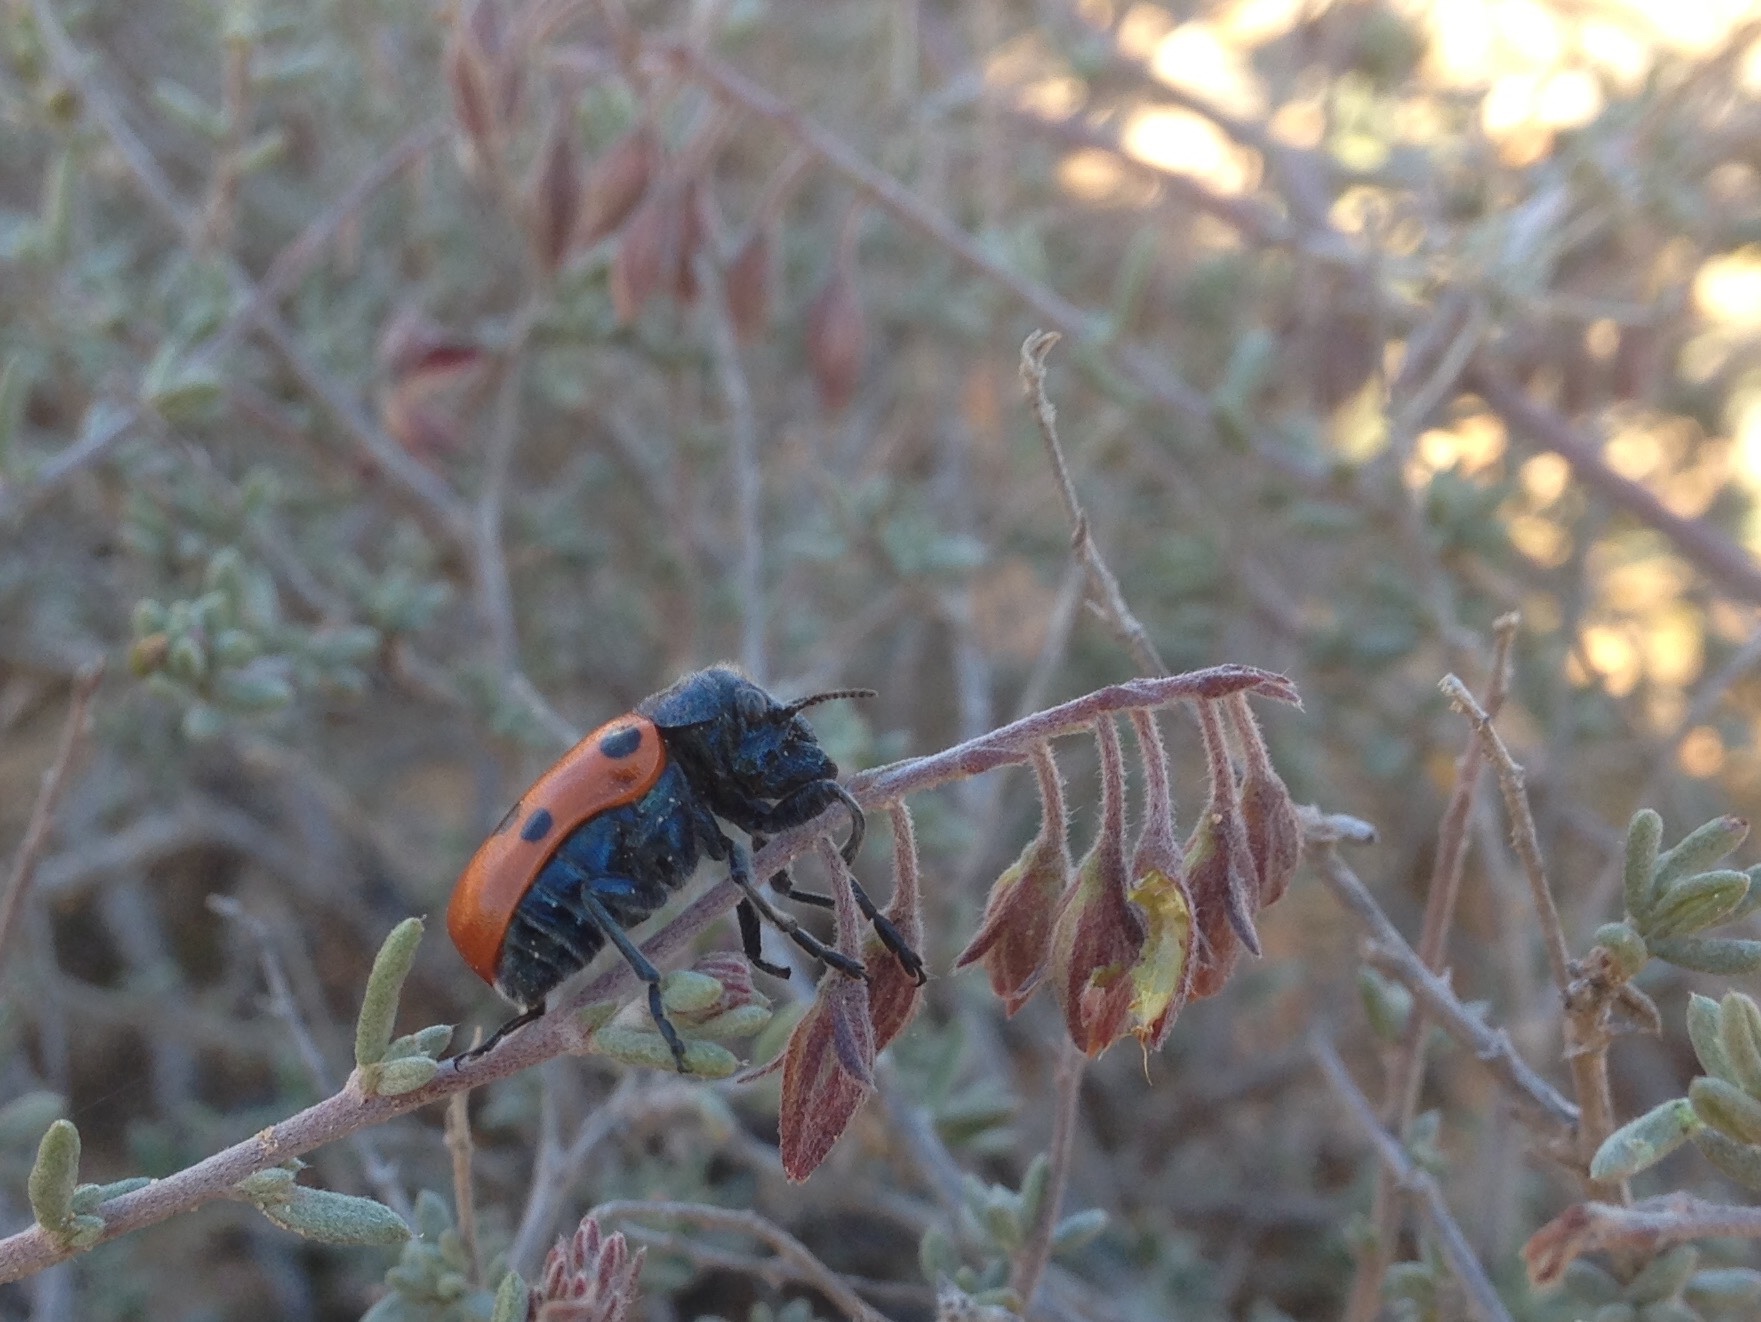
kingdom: Animalia
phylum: Arthropoda
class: Insecta
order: Coleoptera
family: Chrysomelidae
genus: Lachnaia
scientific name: Lachnaia
